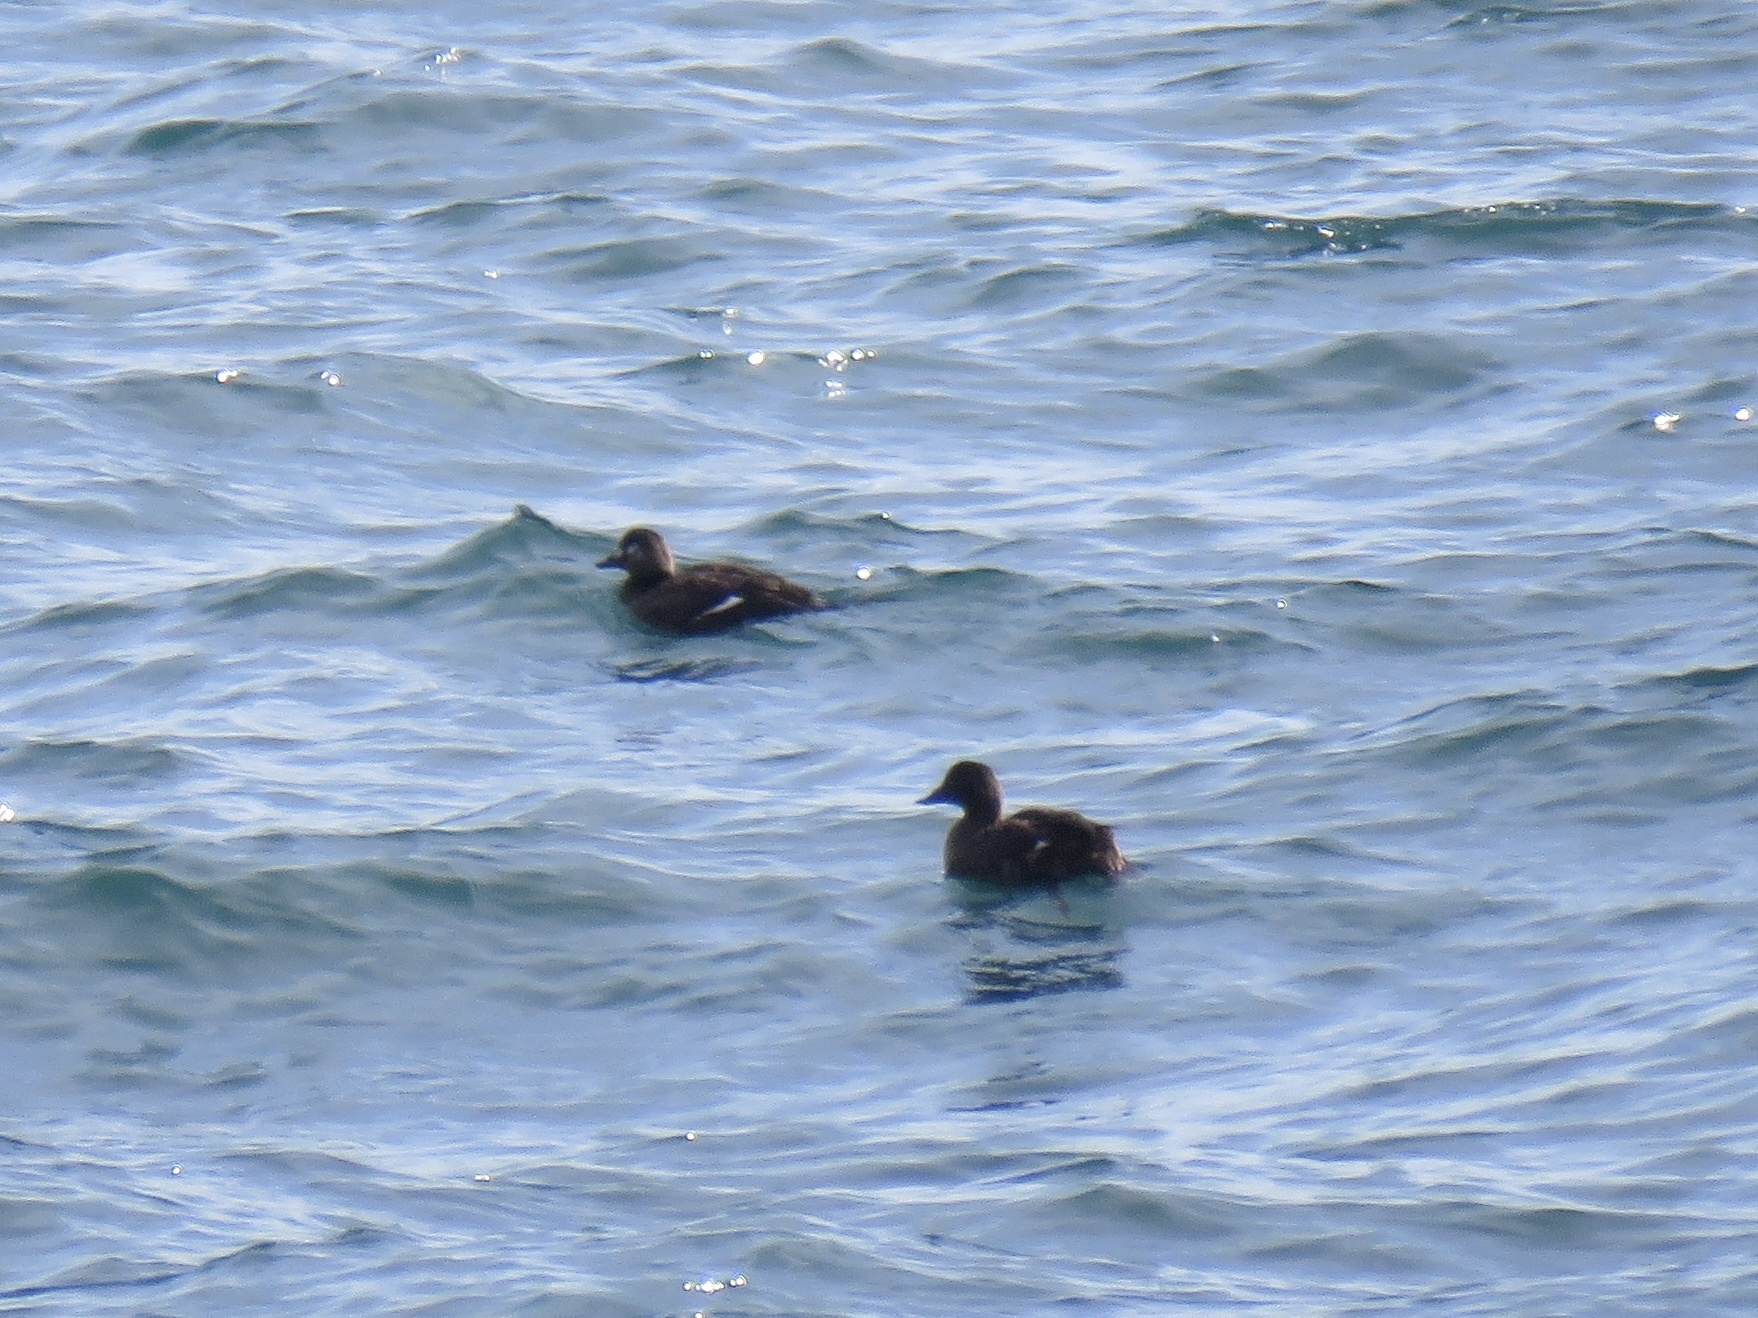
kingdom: Animalia
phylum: Chordata
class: Aves
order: Anseriformes
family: Anatidae
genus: Melanitta
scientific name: Melanitta deglandi
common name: White-winged scoter
